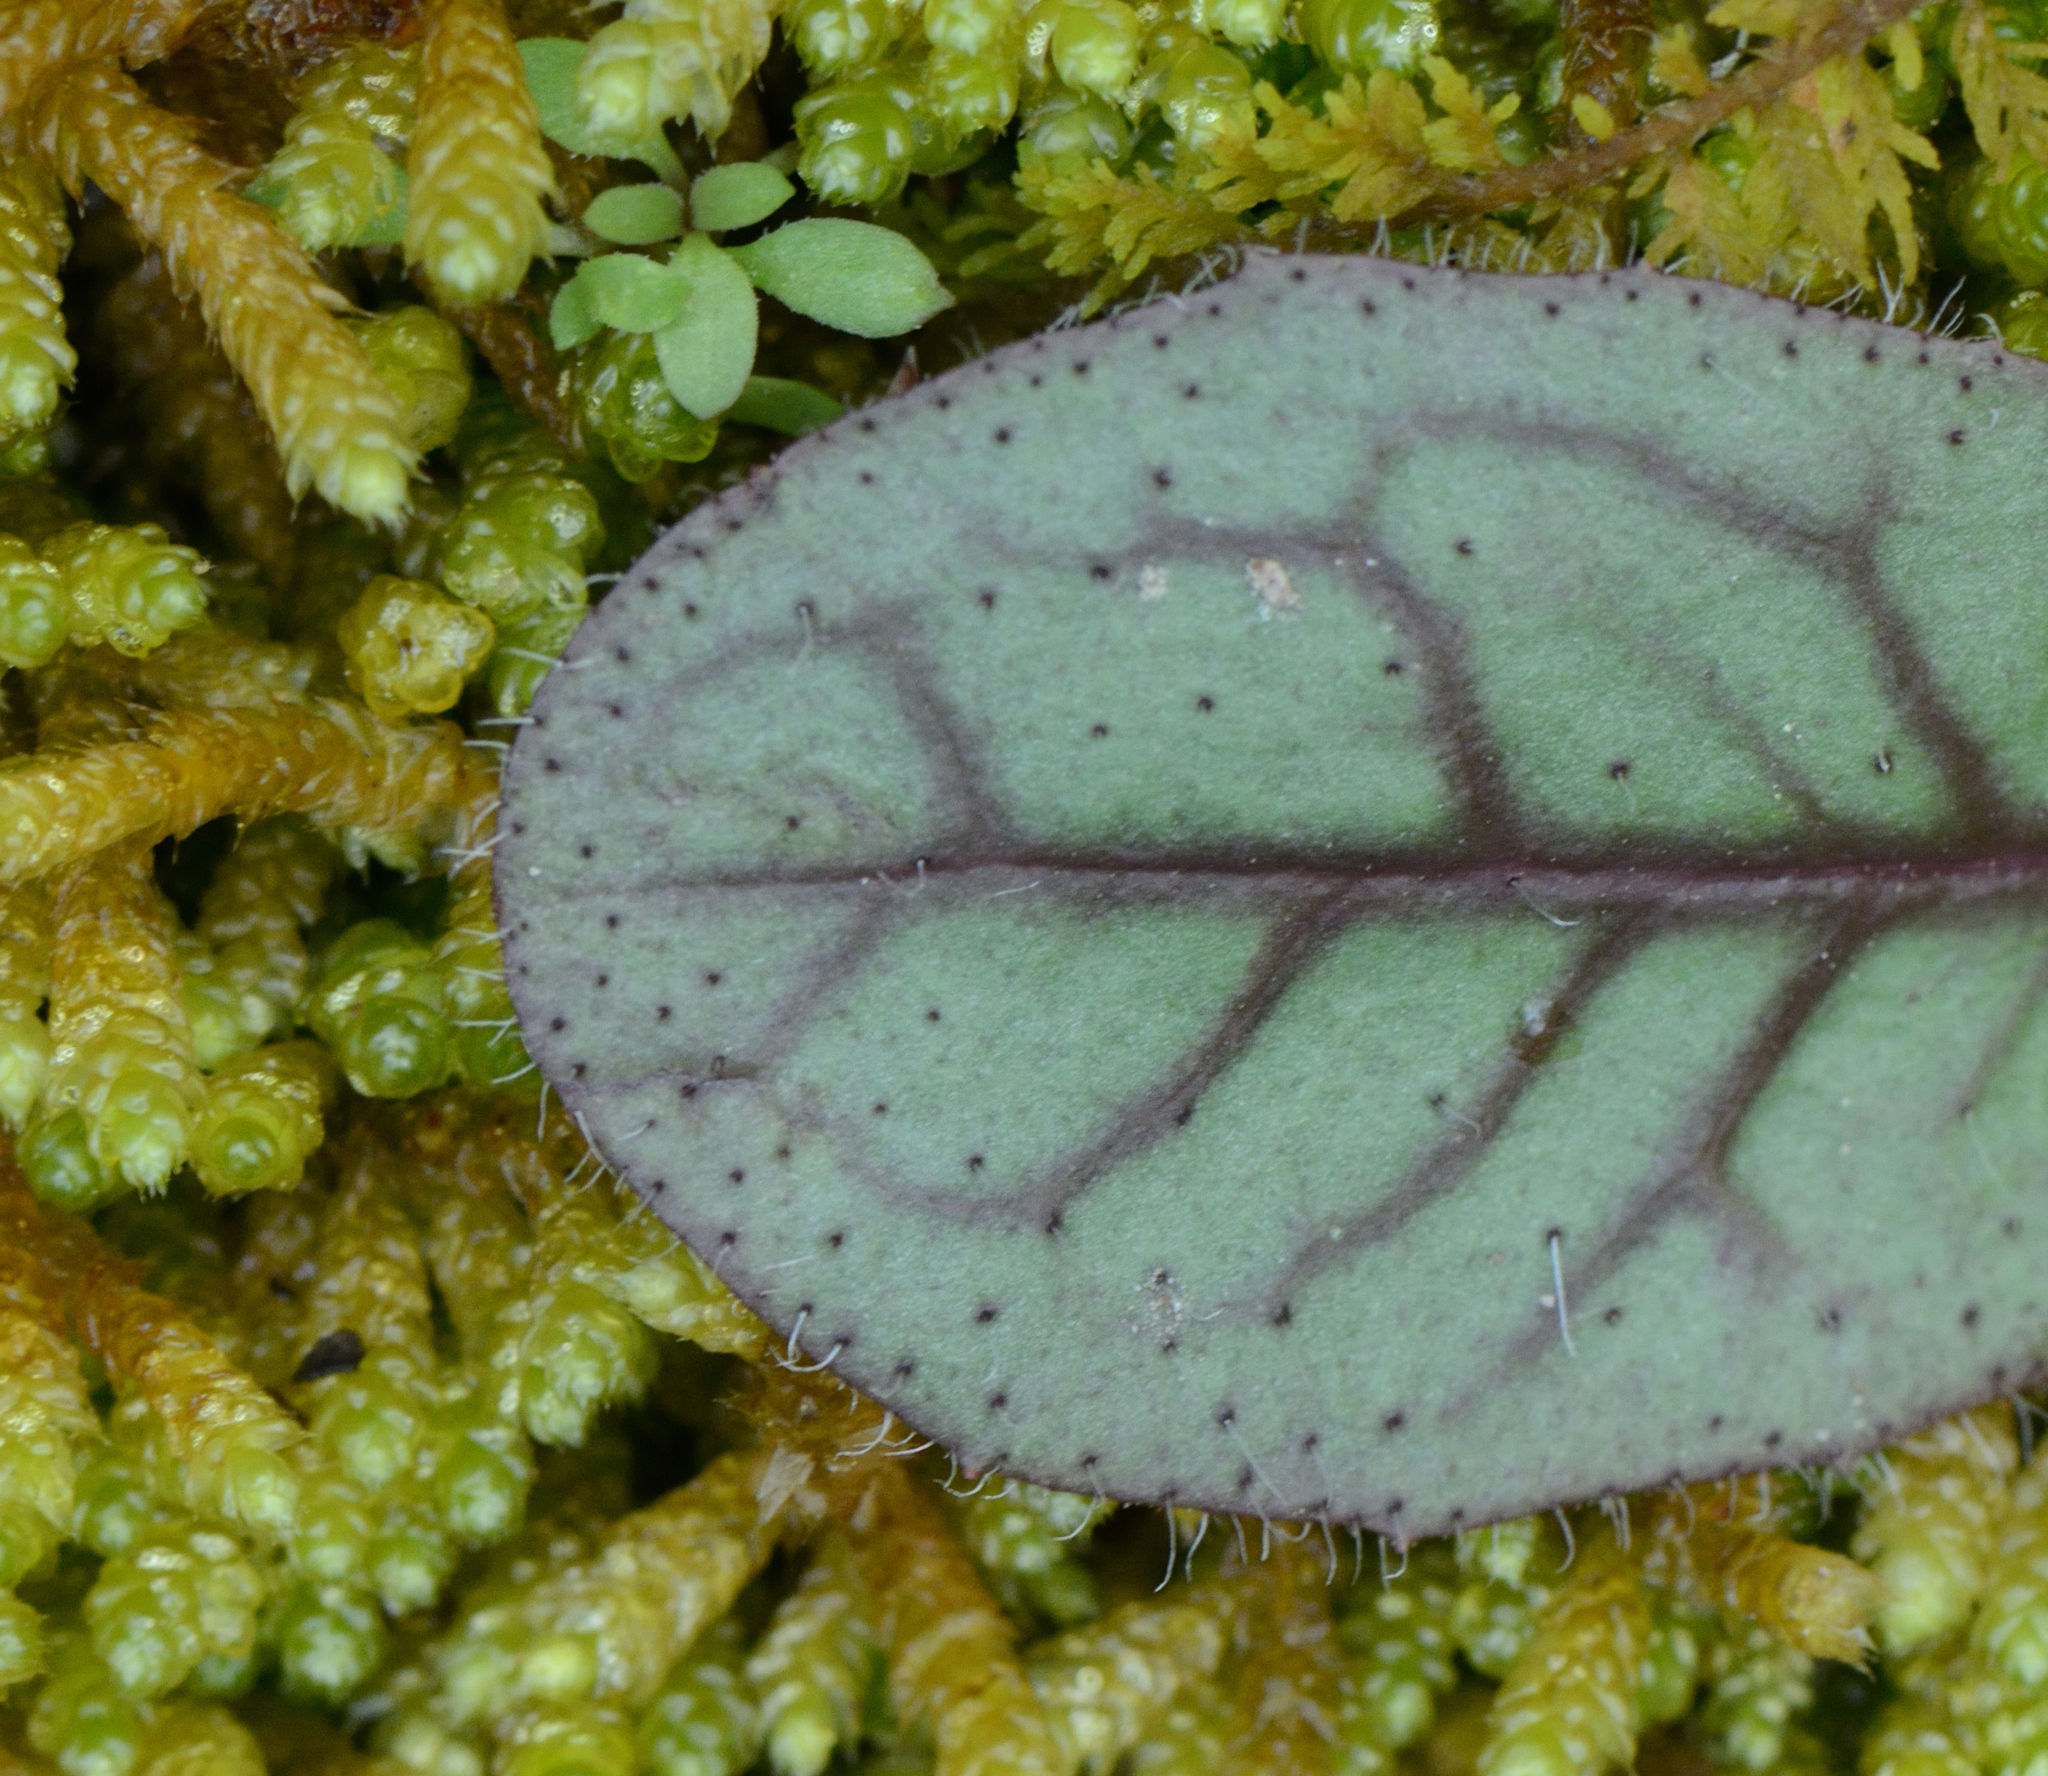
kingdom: Plantae
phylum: Tracheophyta
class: Magnoliopsida
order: Asterales
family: Asteraceae
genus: Hieracium
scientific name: Hieracium venosum
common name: Rattlesnake hawkweed
